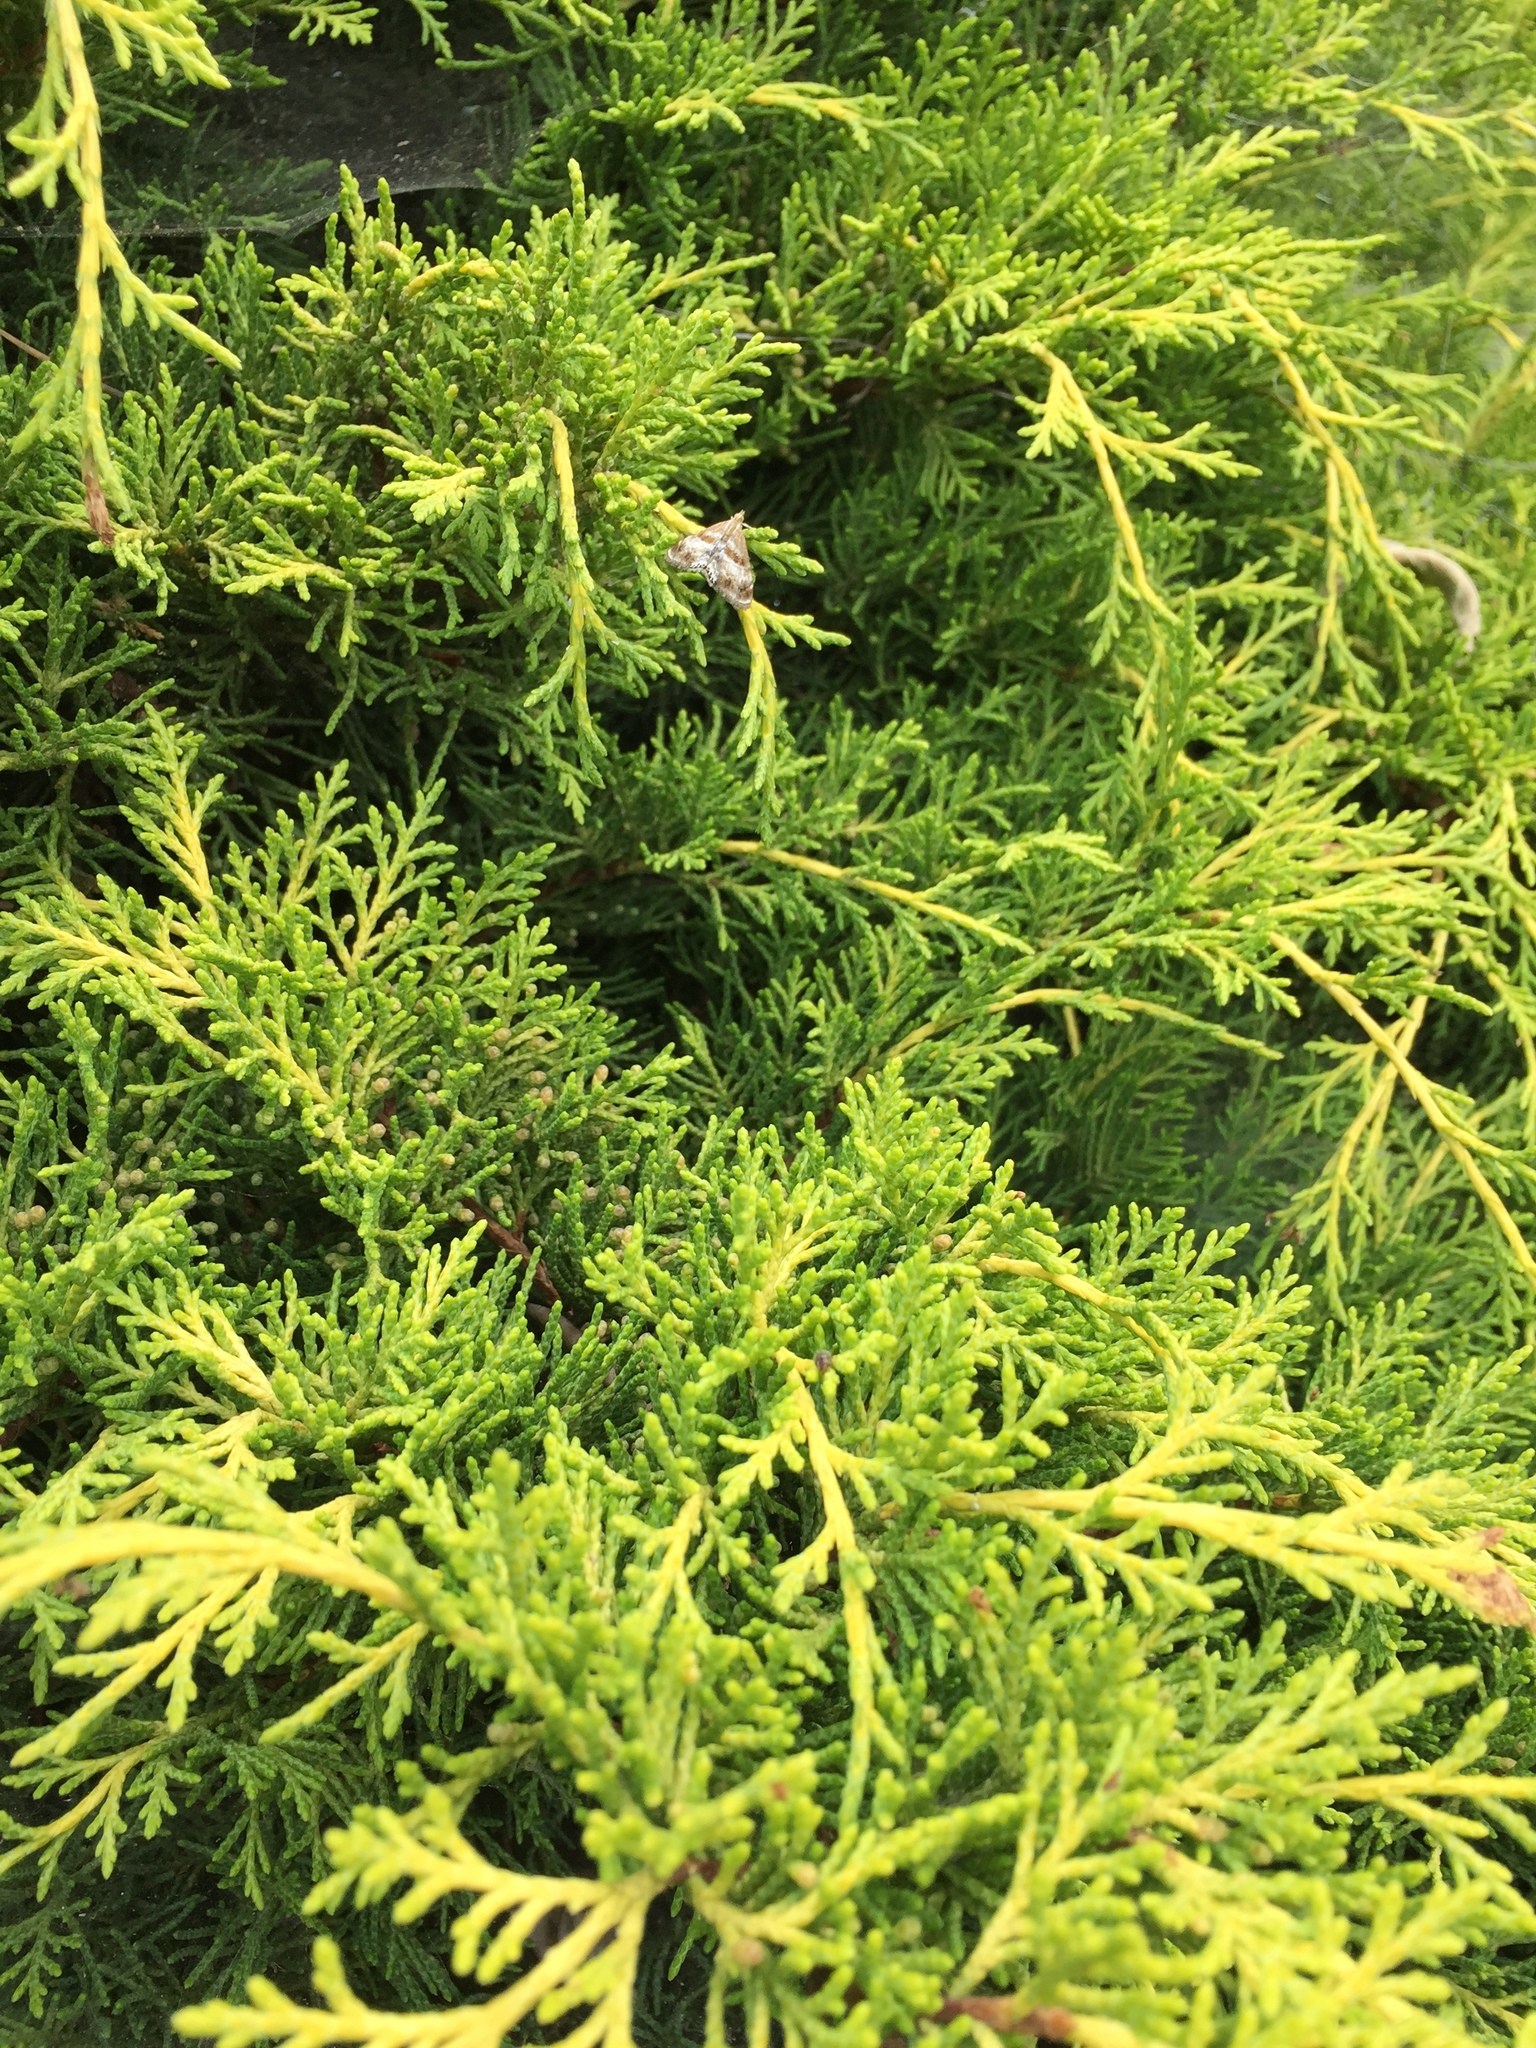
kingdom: Animalia
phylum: Arthropoda
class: Insecta
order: Lepidoptera
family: Crambidae
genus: Dicymolomia
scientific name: Dicymolomia metalliferalis
